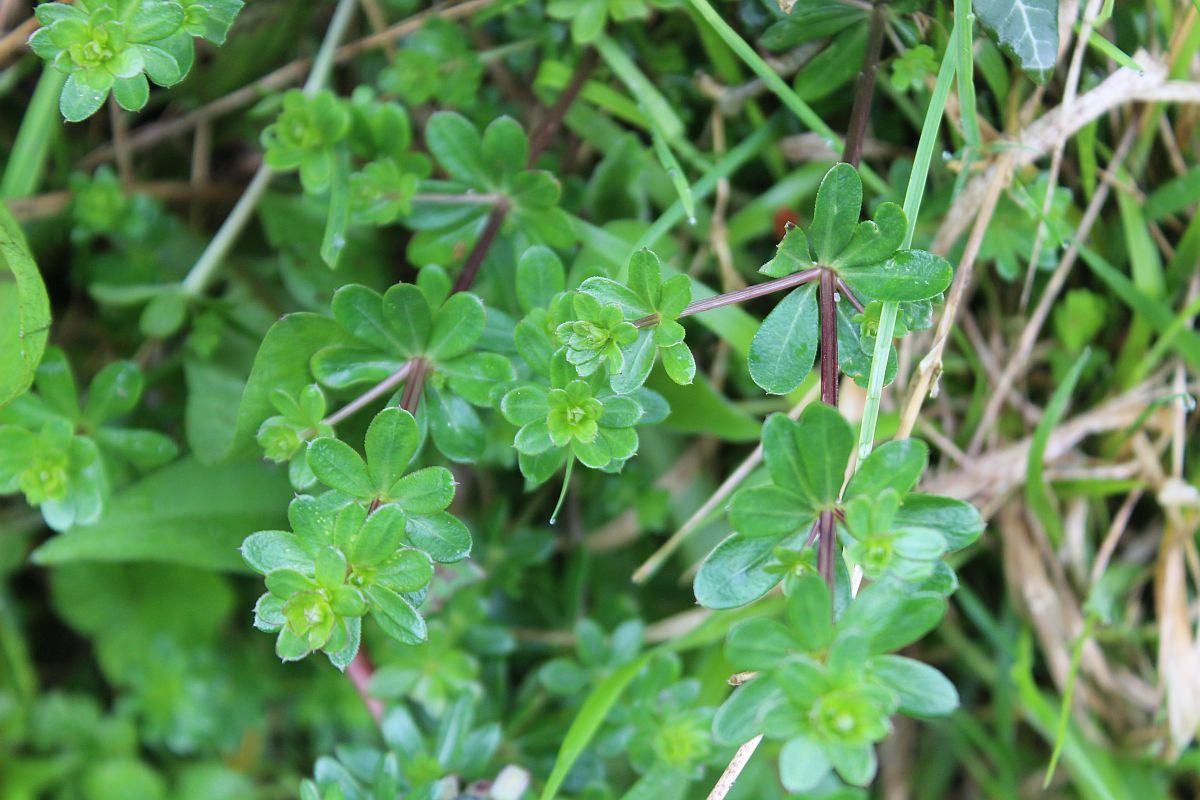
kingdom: Plantae
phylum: Tracheophyta
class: Magnoliopsida
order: Gentianales
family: Rubiaceae
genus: Galium
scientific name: Galium mollugo
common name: Hedge bedstraw
